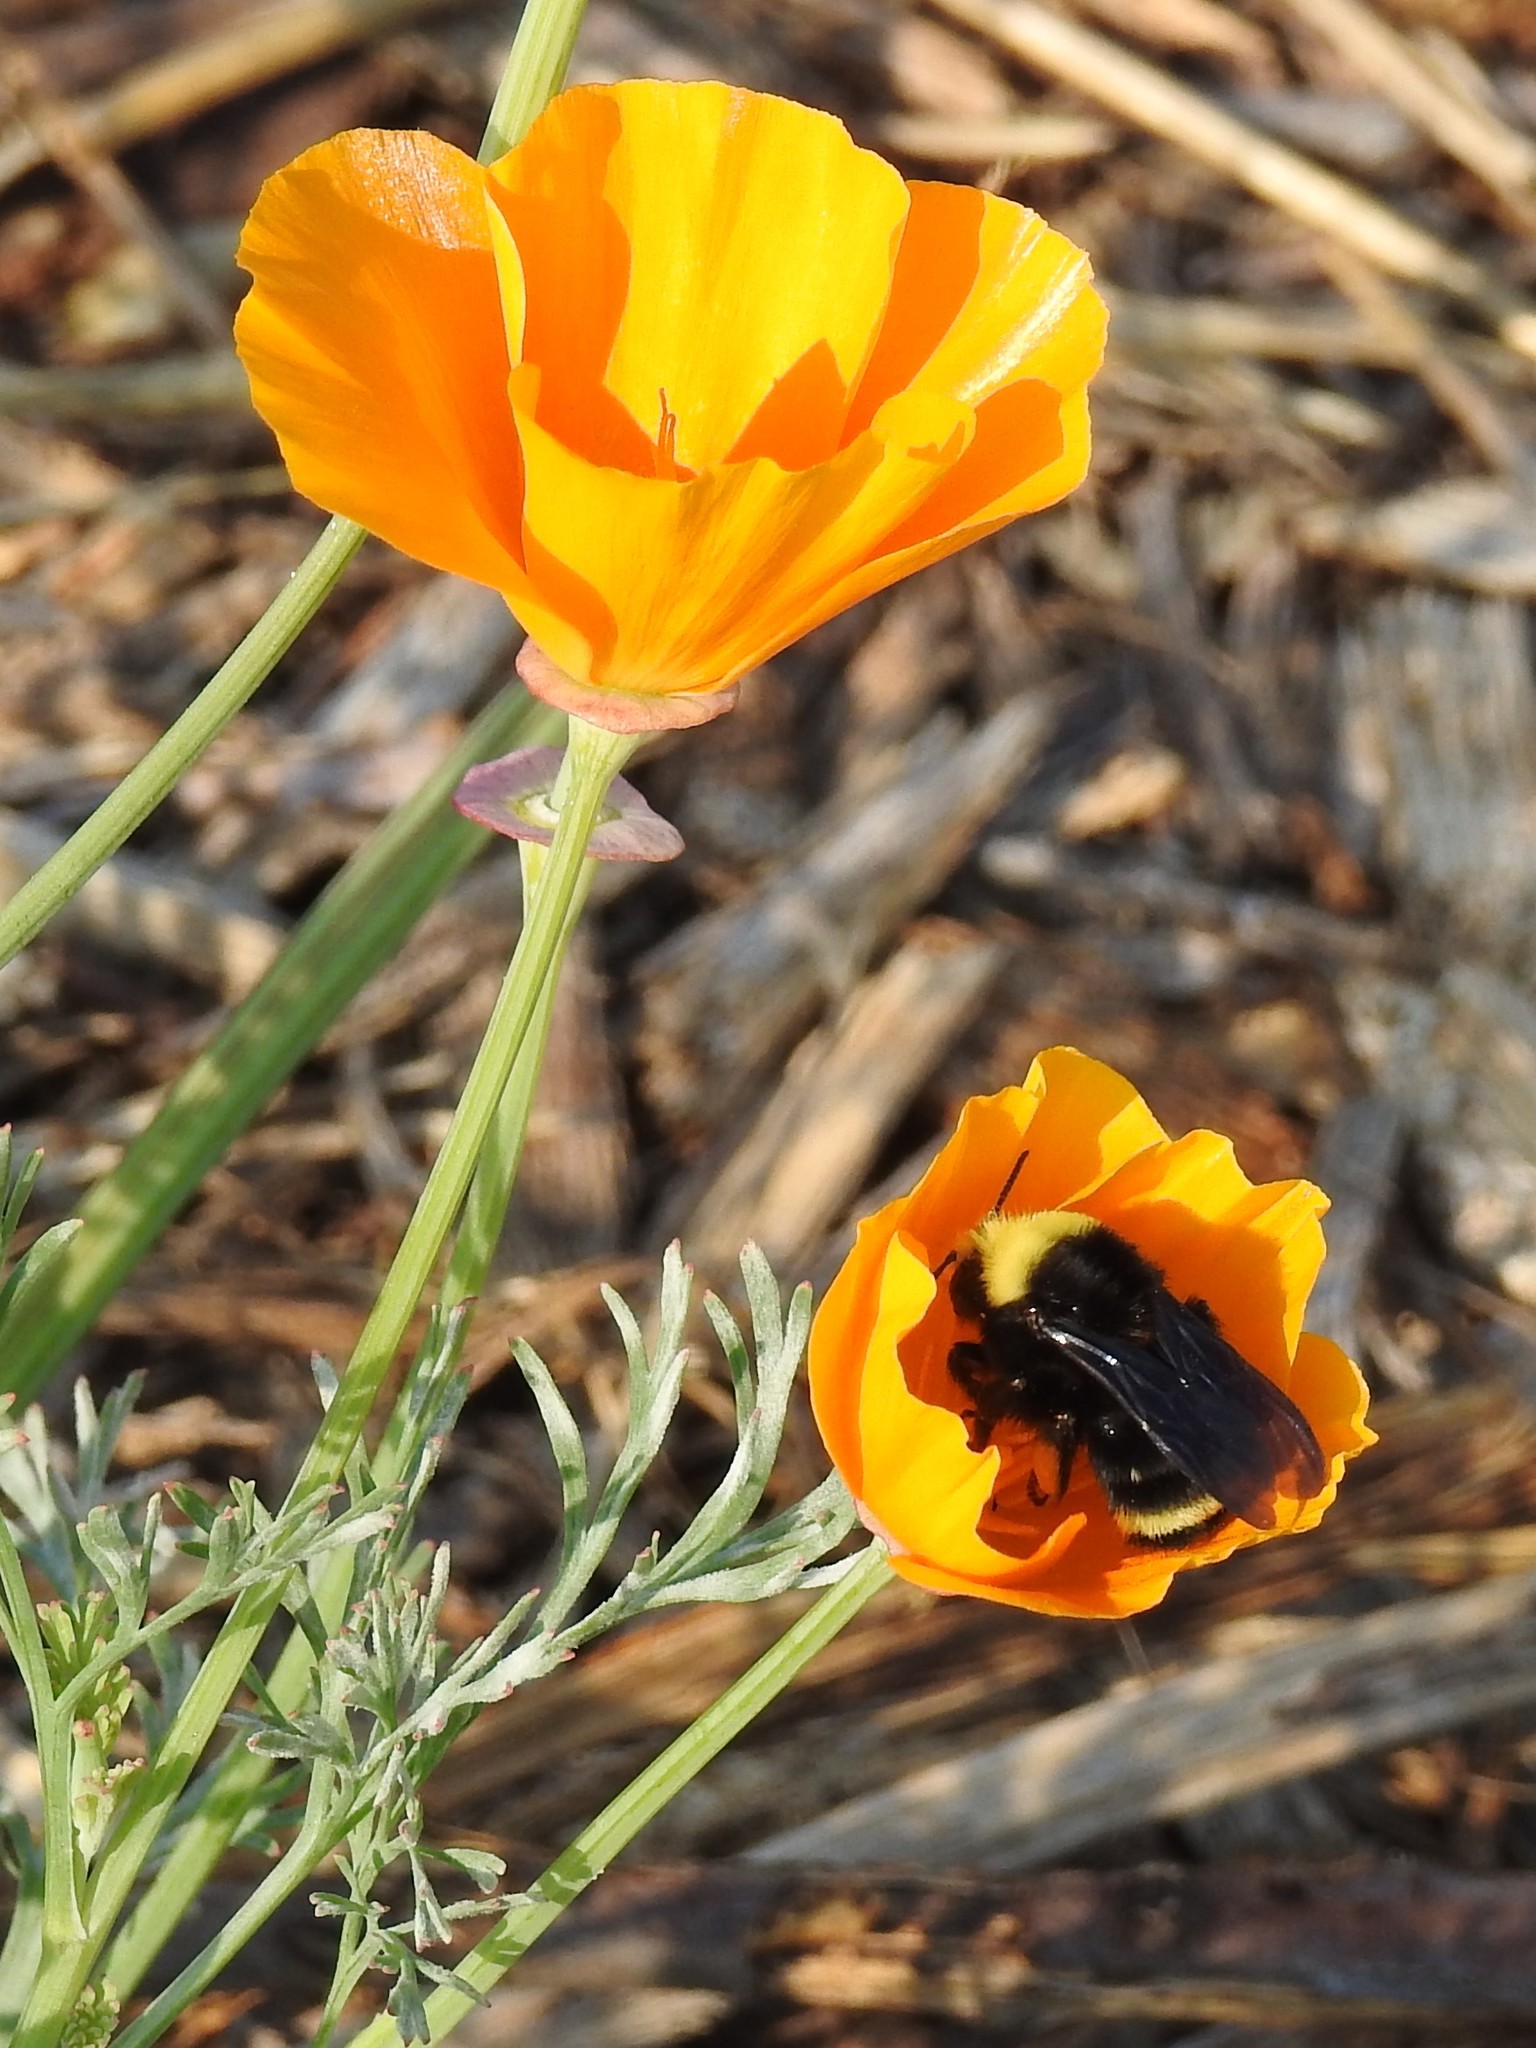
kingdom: Animalia
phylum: Arthropoda
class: Insecta
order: Hymenoptera
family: Apidae
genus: Pyrobombus
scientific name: Pyrobombus
